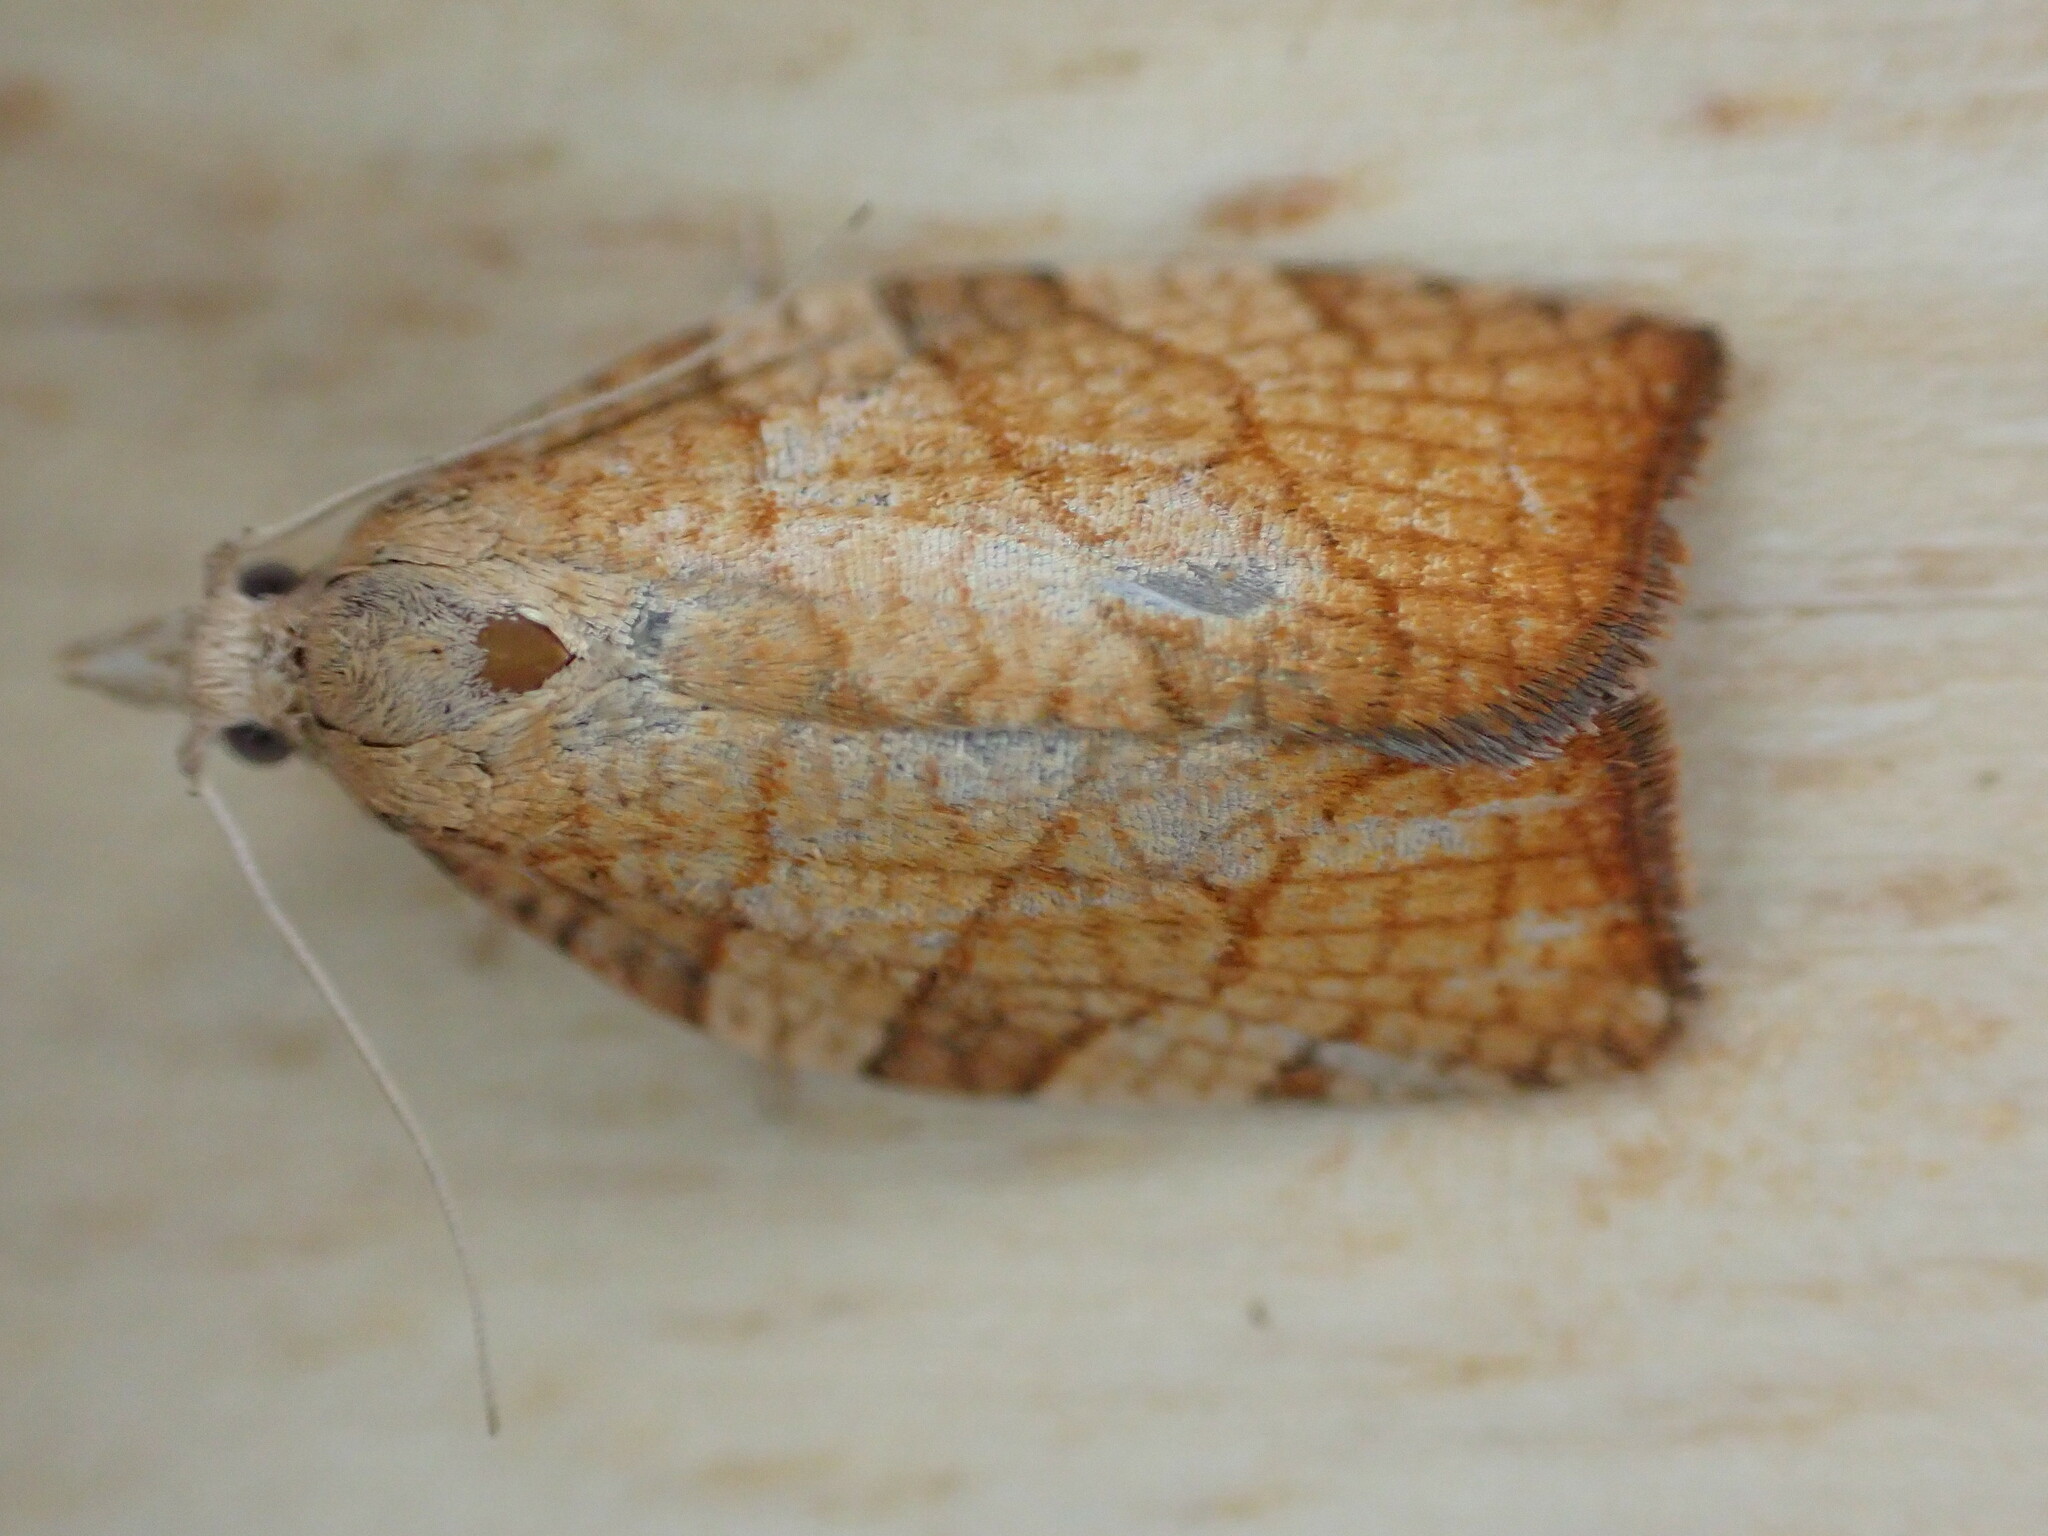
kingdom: Animalia
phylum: Arthropoda
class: Insecta
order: Lepidoptera
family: Tortricidae
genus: Pandemis
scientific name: Pandemis corylana
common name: Chequered fruit-tree tortrix
